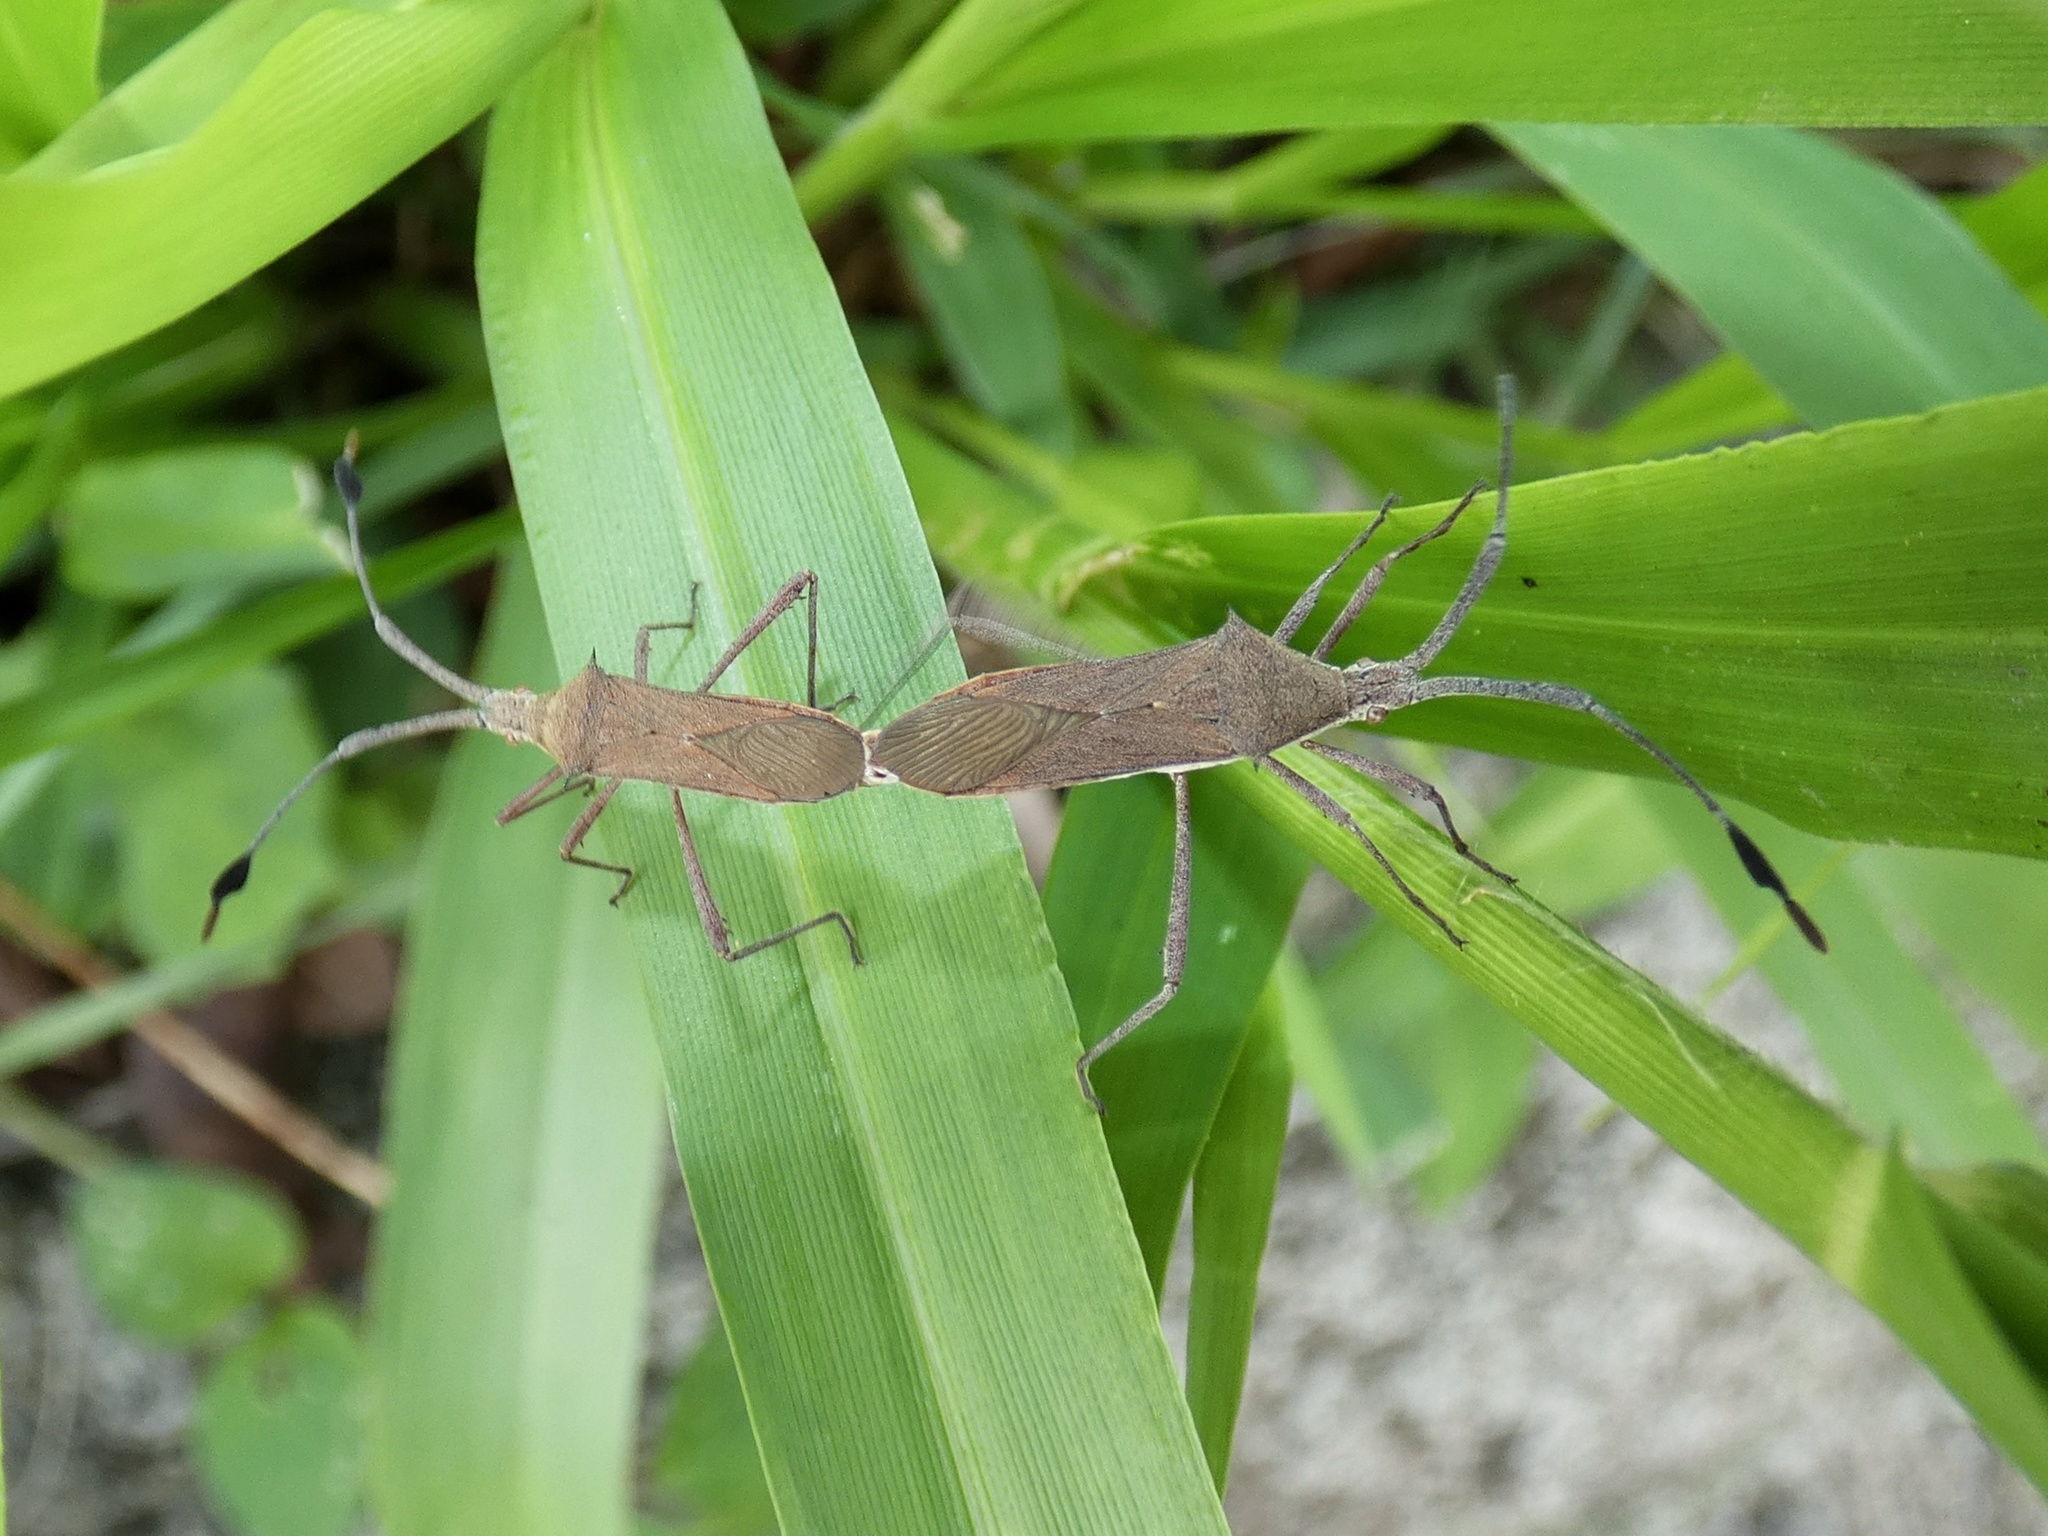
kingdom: Animalia
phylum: Arthropoda
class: Insecta
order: Hemiptera
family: Coreidae
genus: Chariesterus
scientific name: Chariesterus moestus
